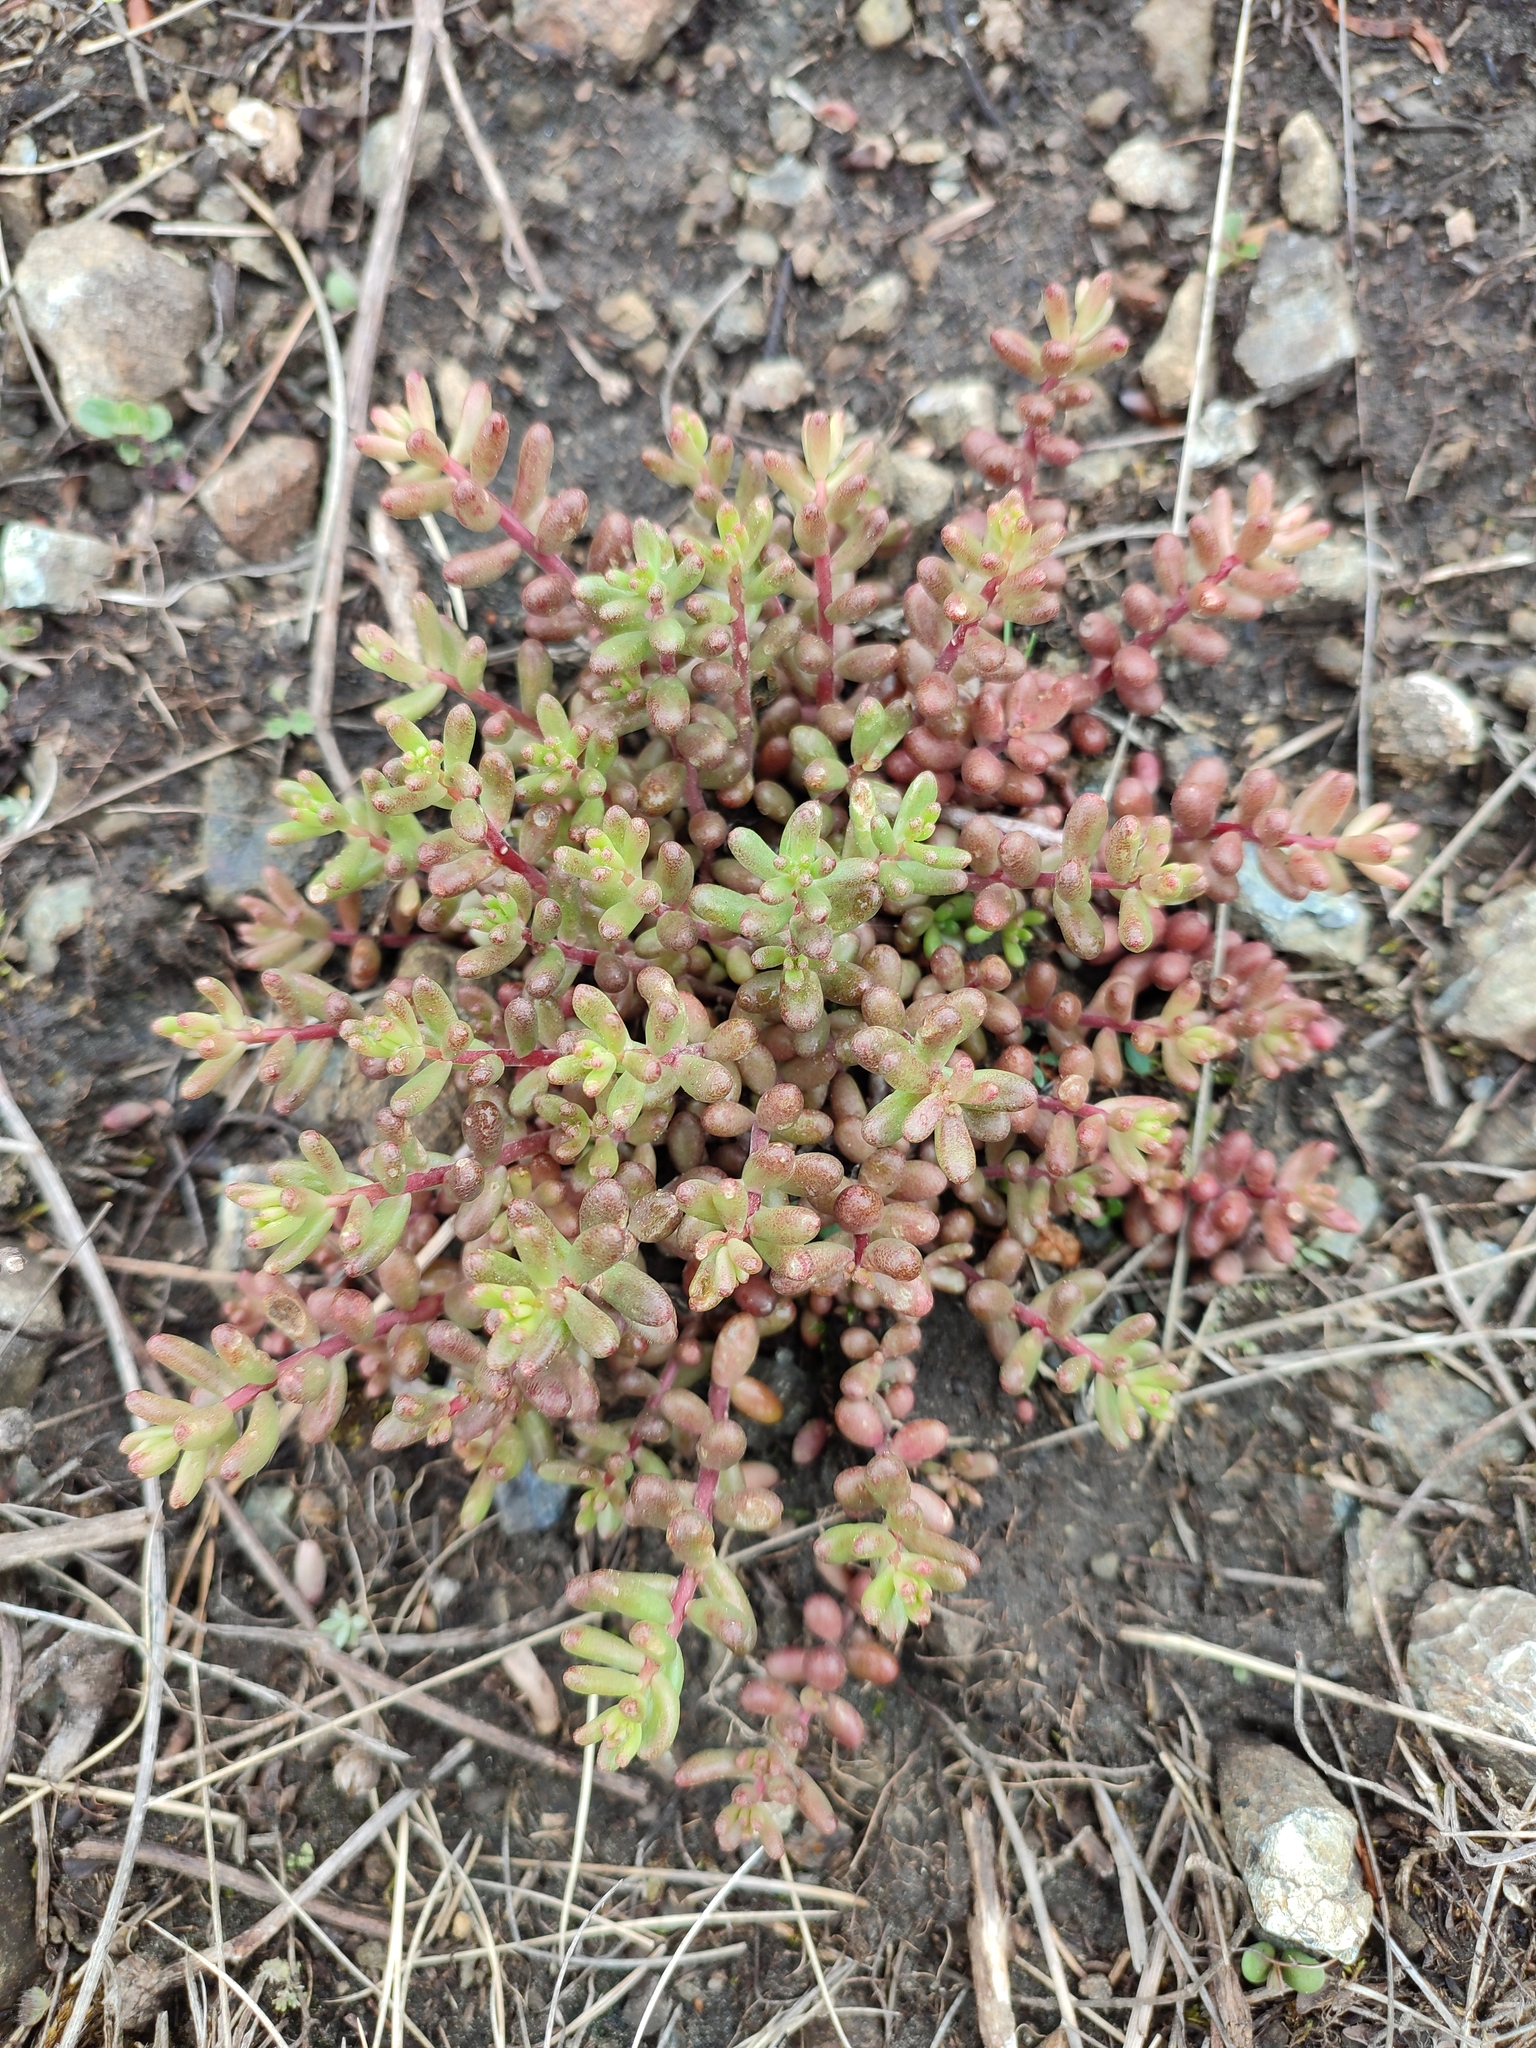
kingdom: Plantae
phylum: Tracheophyta
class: Magnoliopsida
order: Saxifragales
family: Crassulaceae
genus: Sedum
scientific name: Sedum album
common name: White stonecrop
